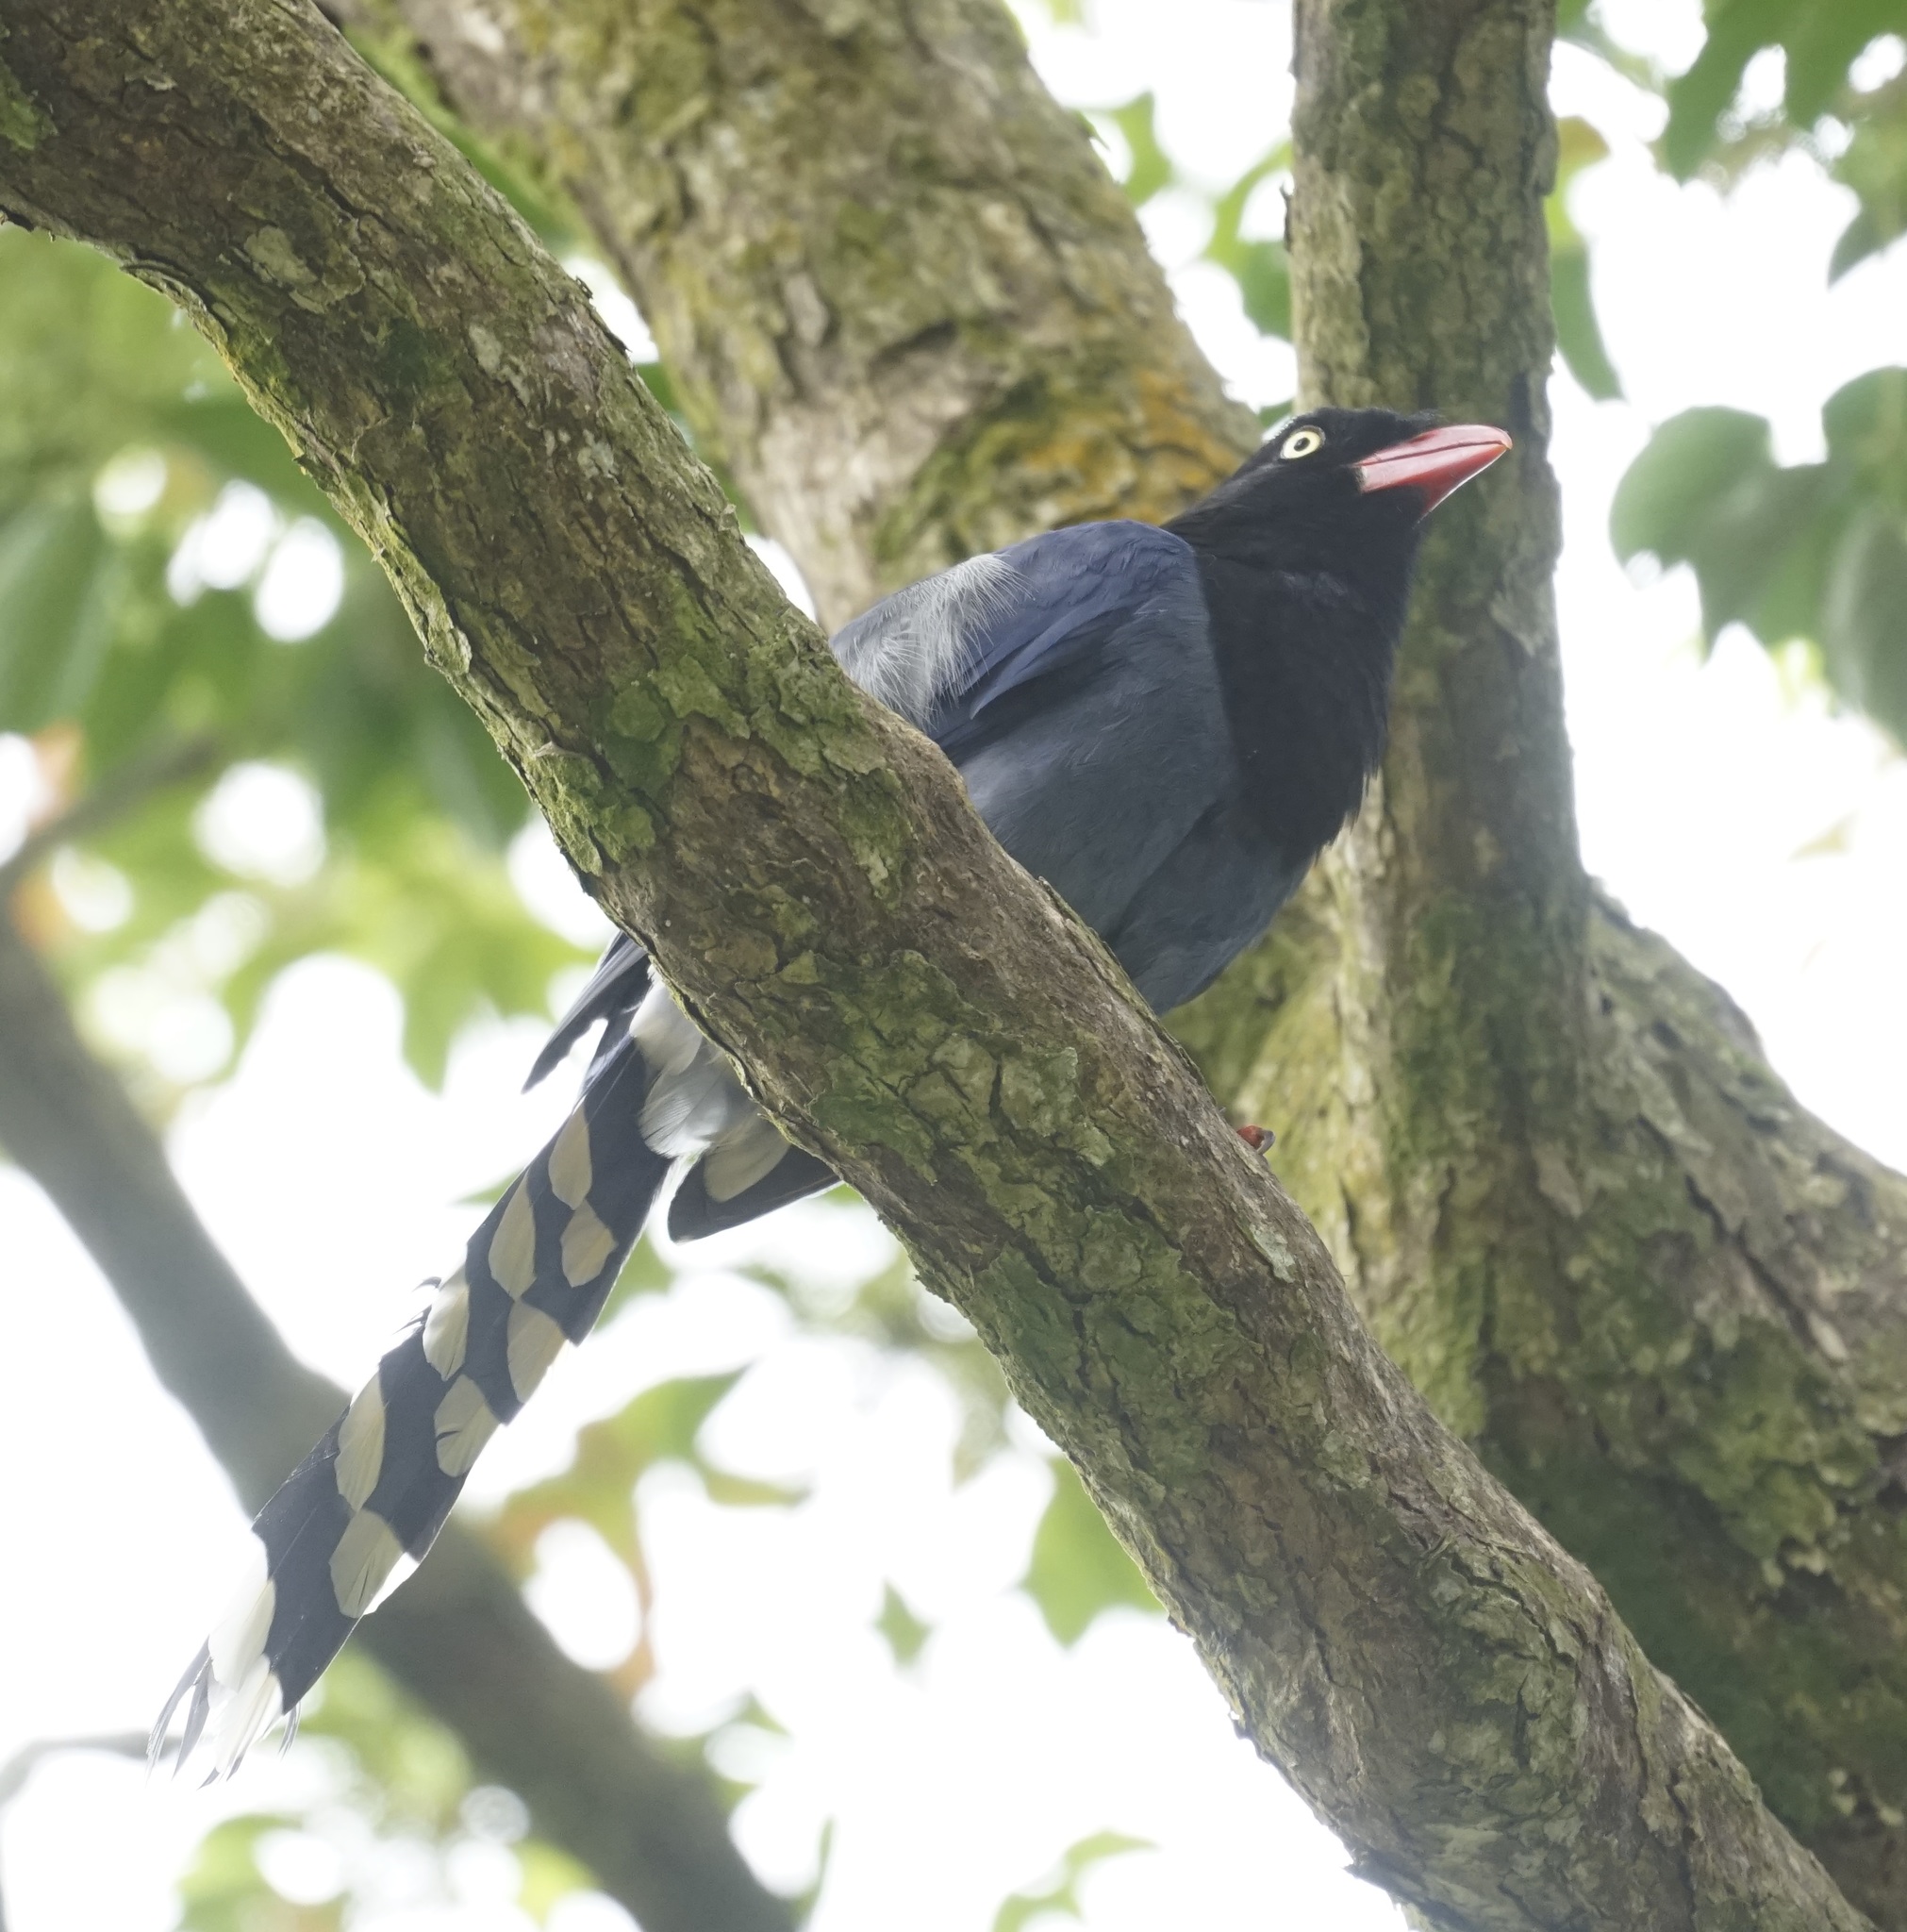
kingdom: Animalia
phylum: Chordata
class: Aves
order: Passeriformes
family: Corvidae
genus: Urocissa
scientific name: Urocissa caerulea
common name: Taiwan blue magpie
